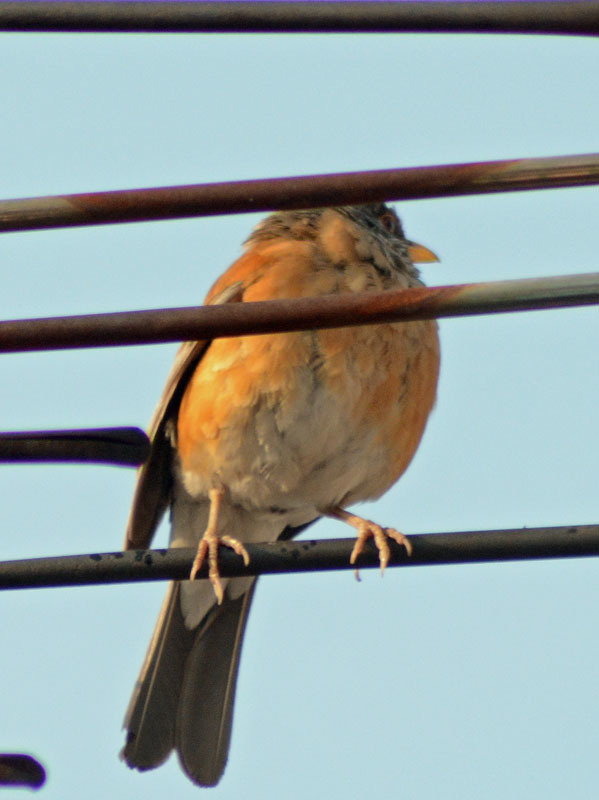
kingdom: Animalia
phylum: Chordata
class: Aves
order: Passeriformes
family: Turdidae
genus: Turdus
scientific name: Turdus rufopalliatus
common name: Rufous-backed robin
